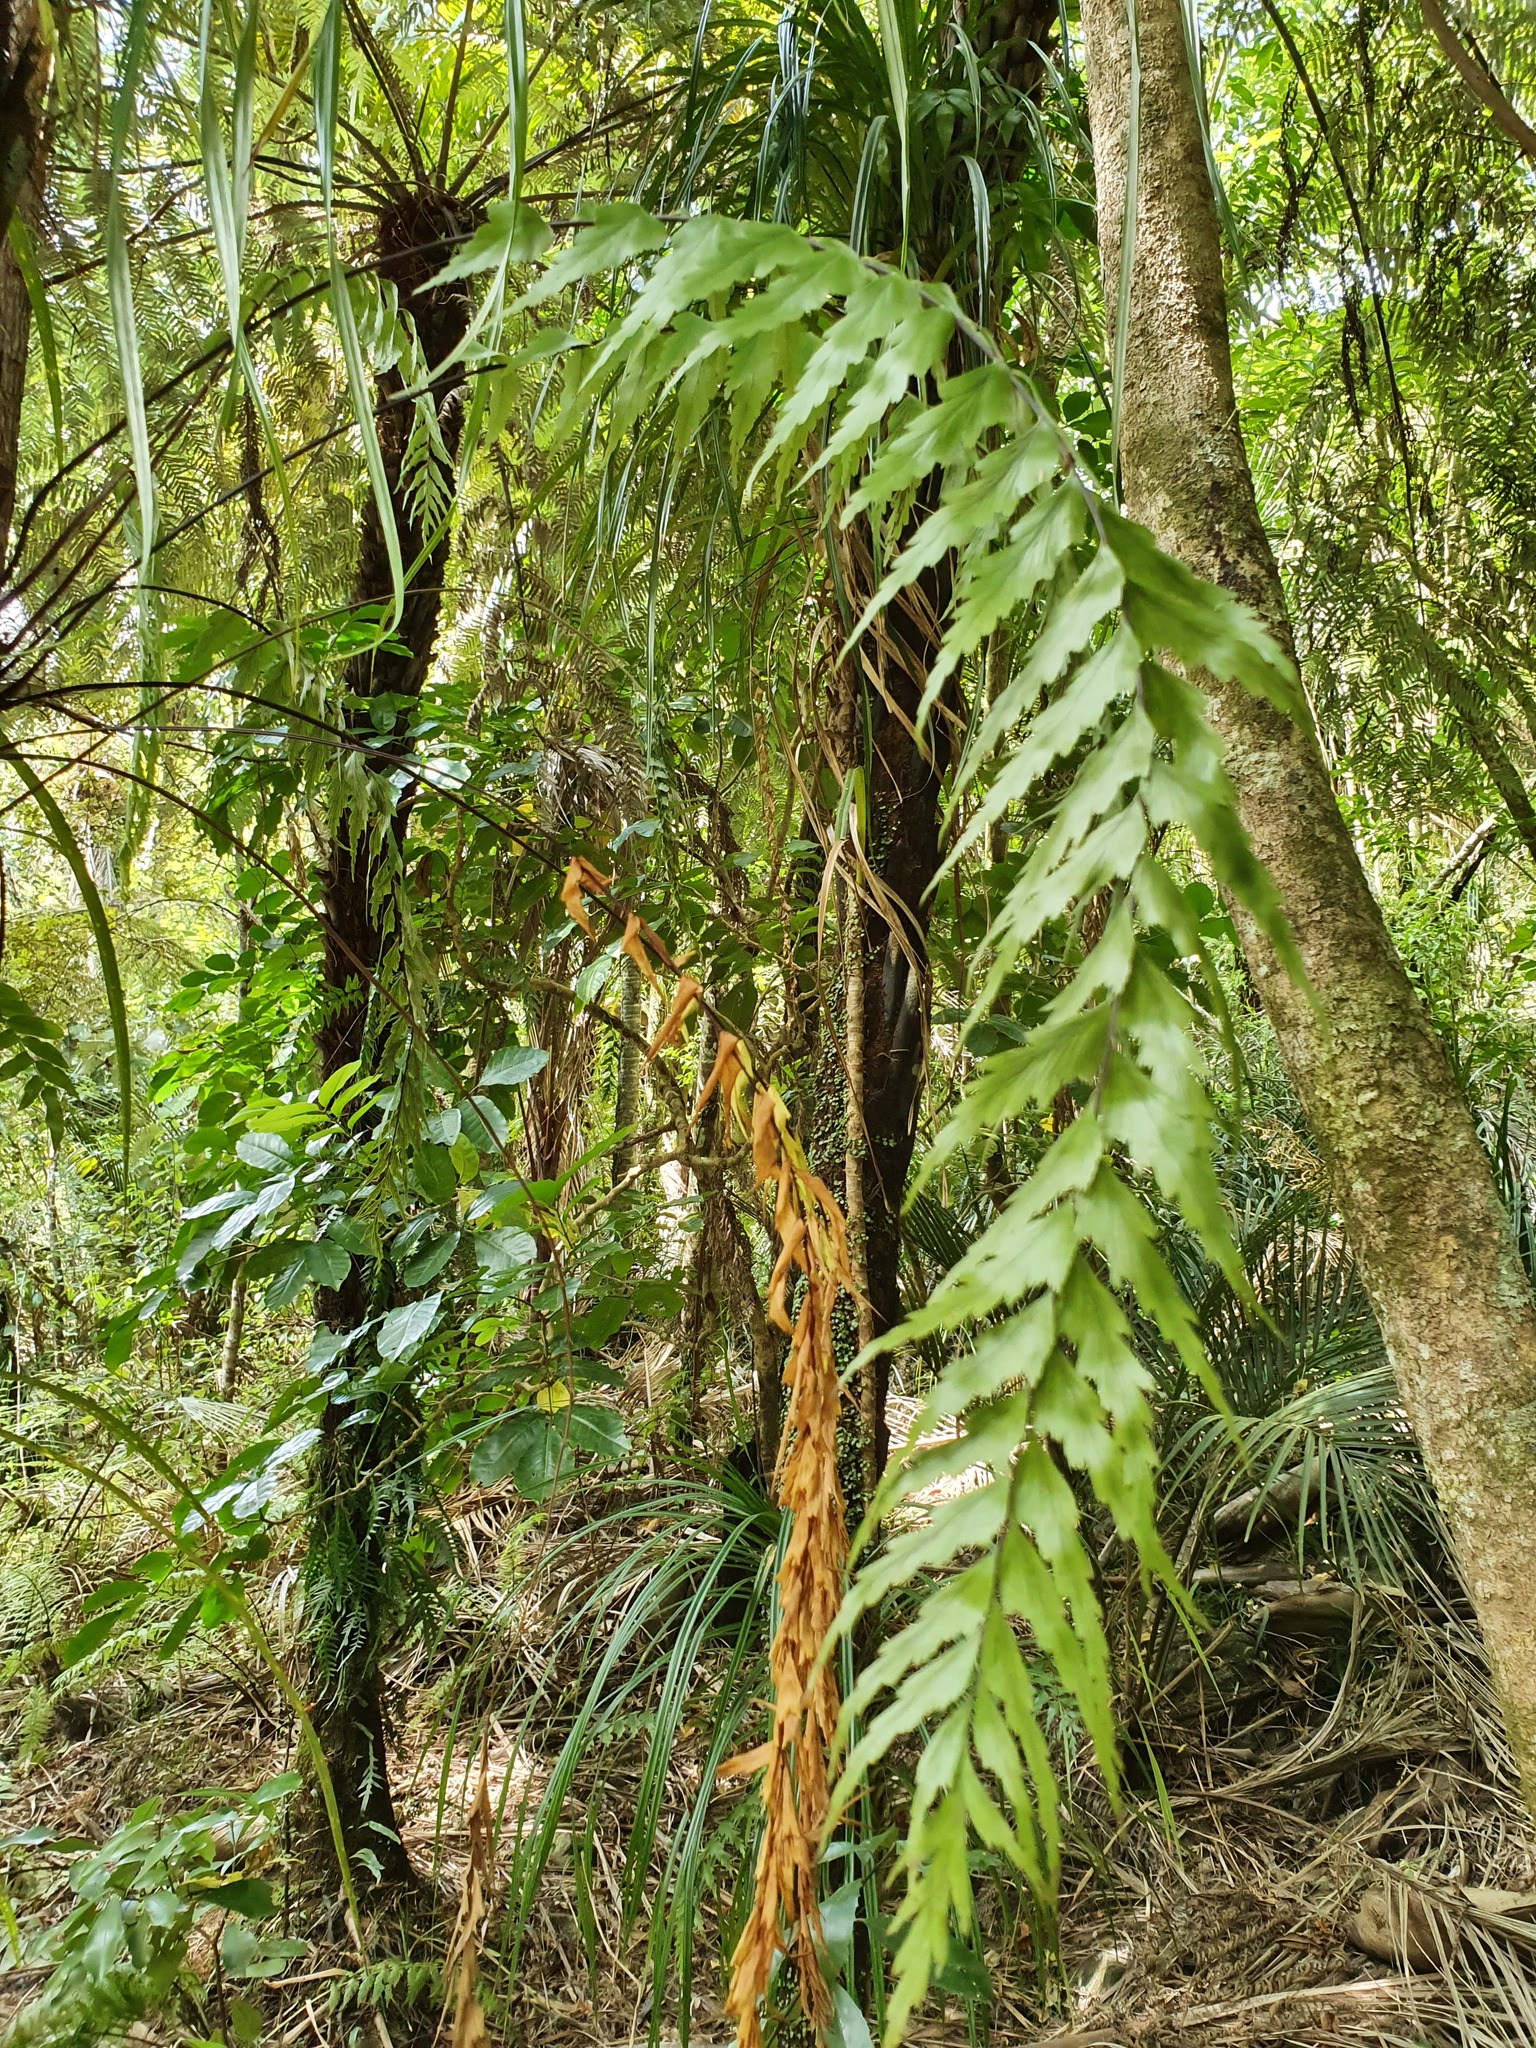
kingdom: Plantae
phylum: Tracheophyta
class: Polypodiopsida
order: Polypodiales
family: Aspleniaceae
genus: Asplenium
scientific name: Asplenium polyodon
